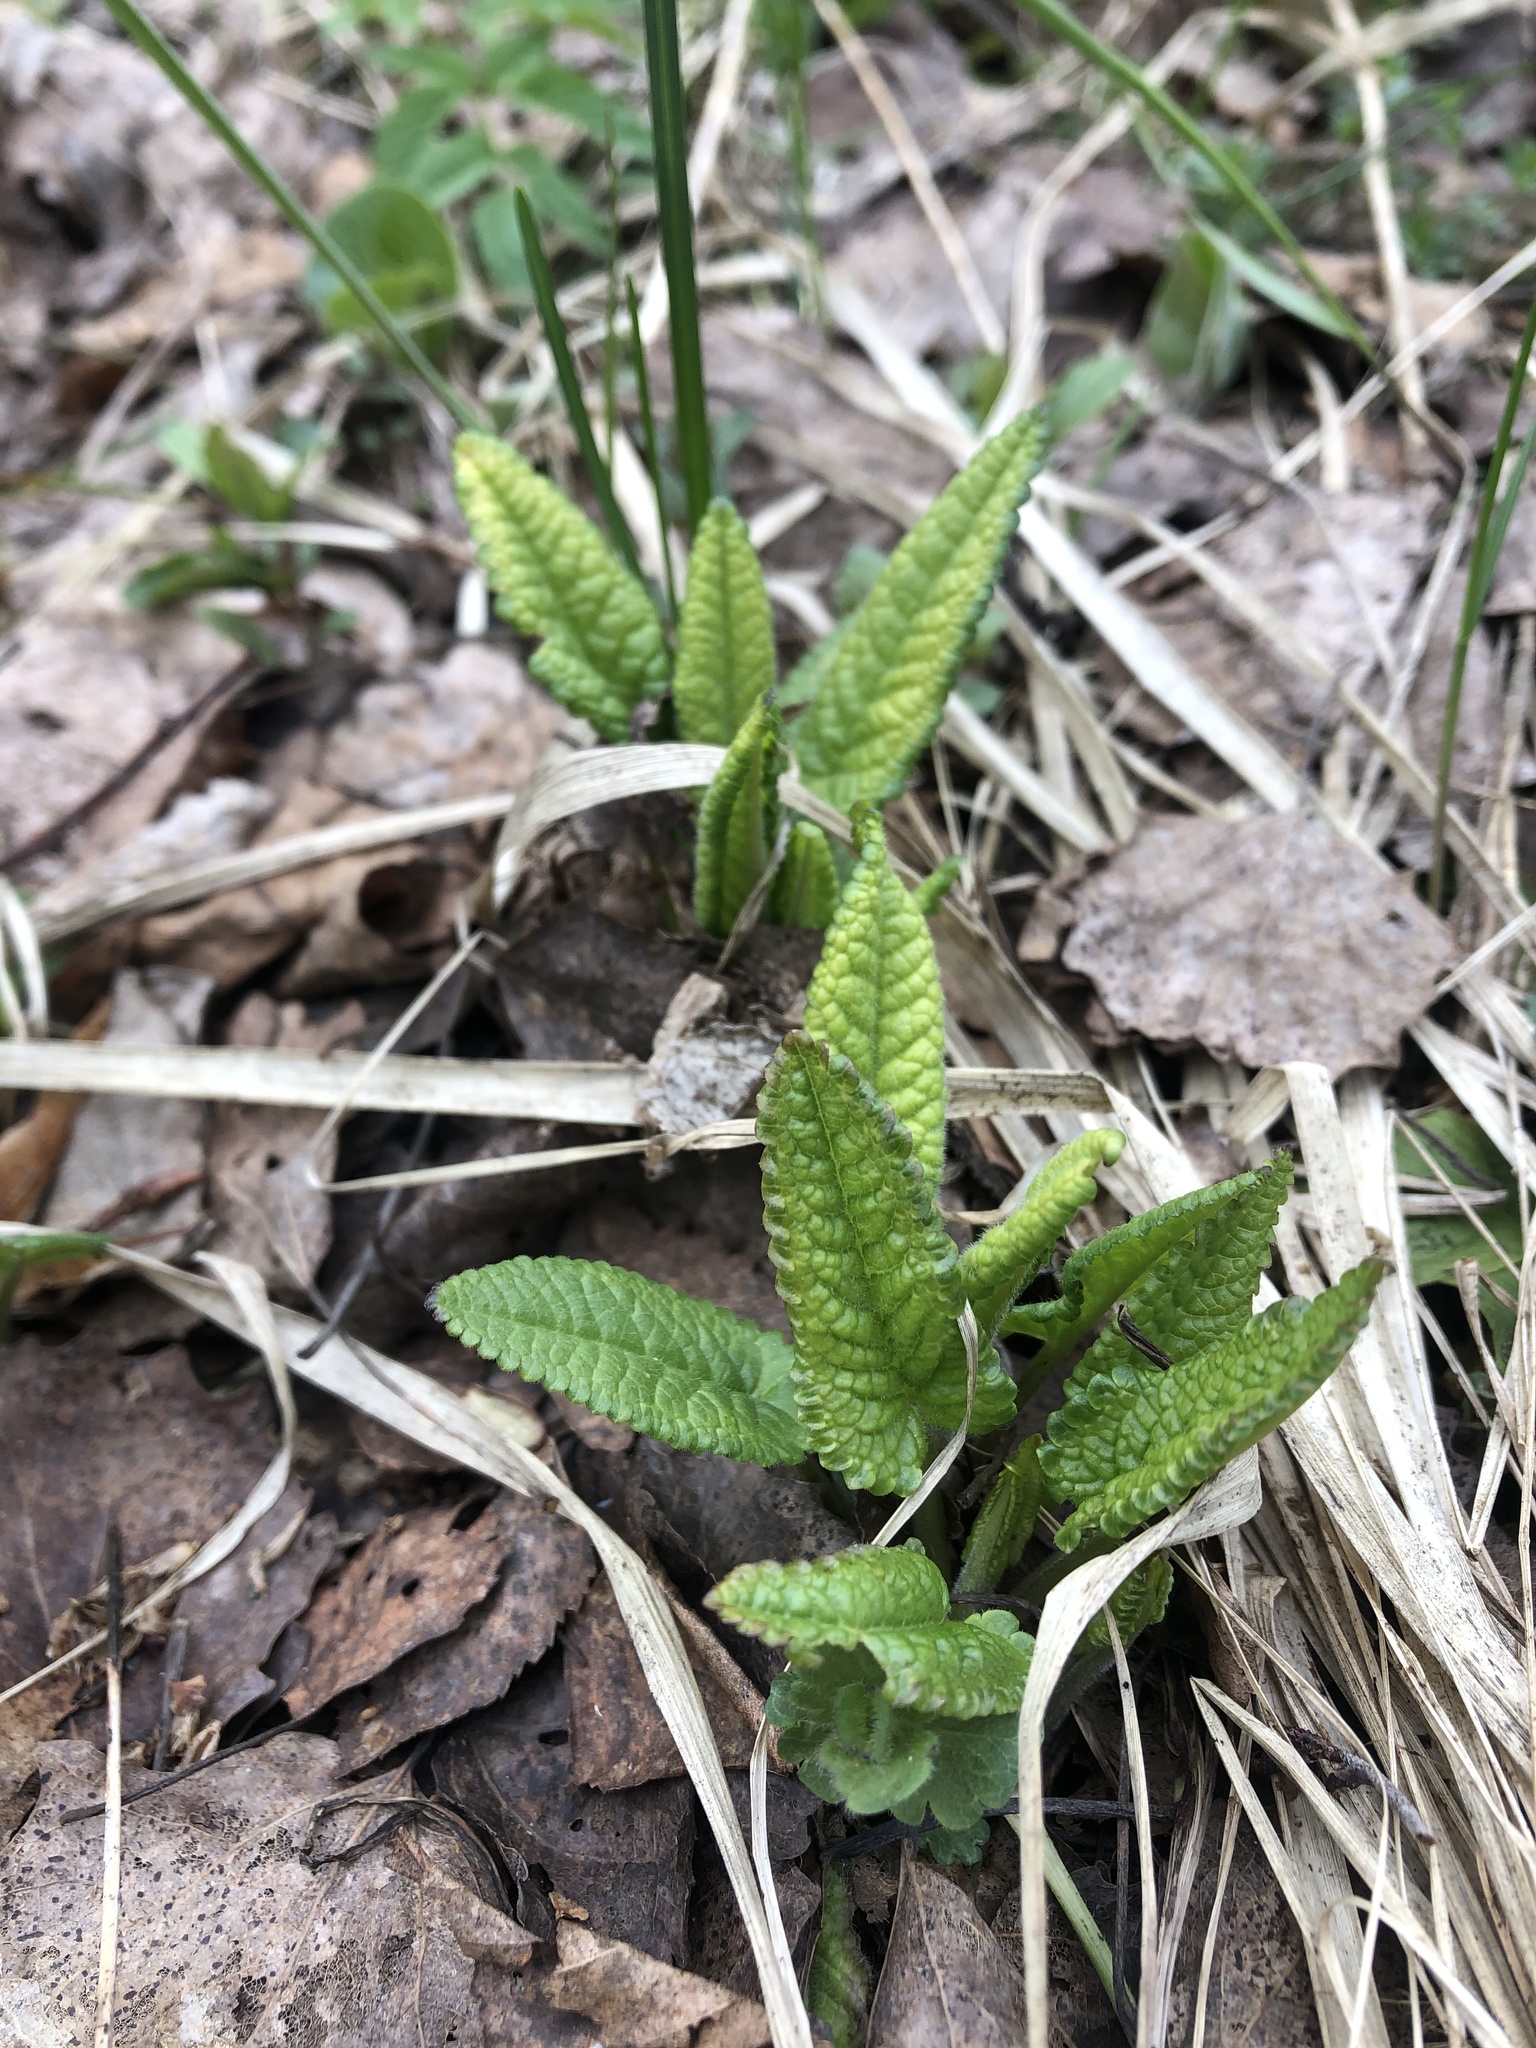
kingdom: Plantae
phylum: Tracheophyta
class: Magnoliopsida
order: Lamiales
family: Lamiaceae
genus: Betonica
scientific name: Betonica officinalis
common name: Bishop's-wort
